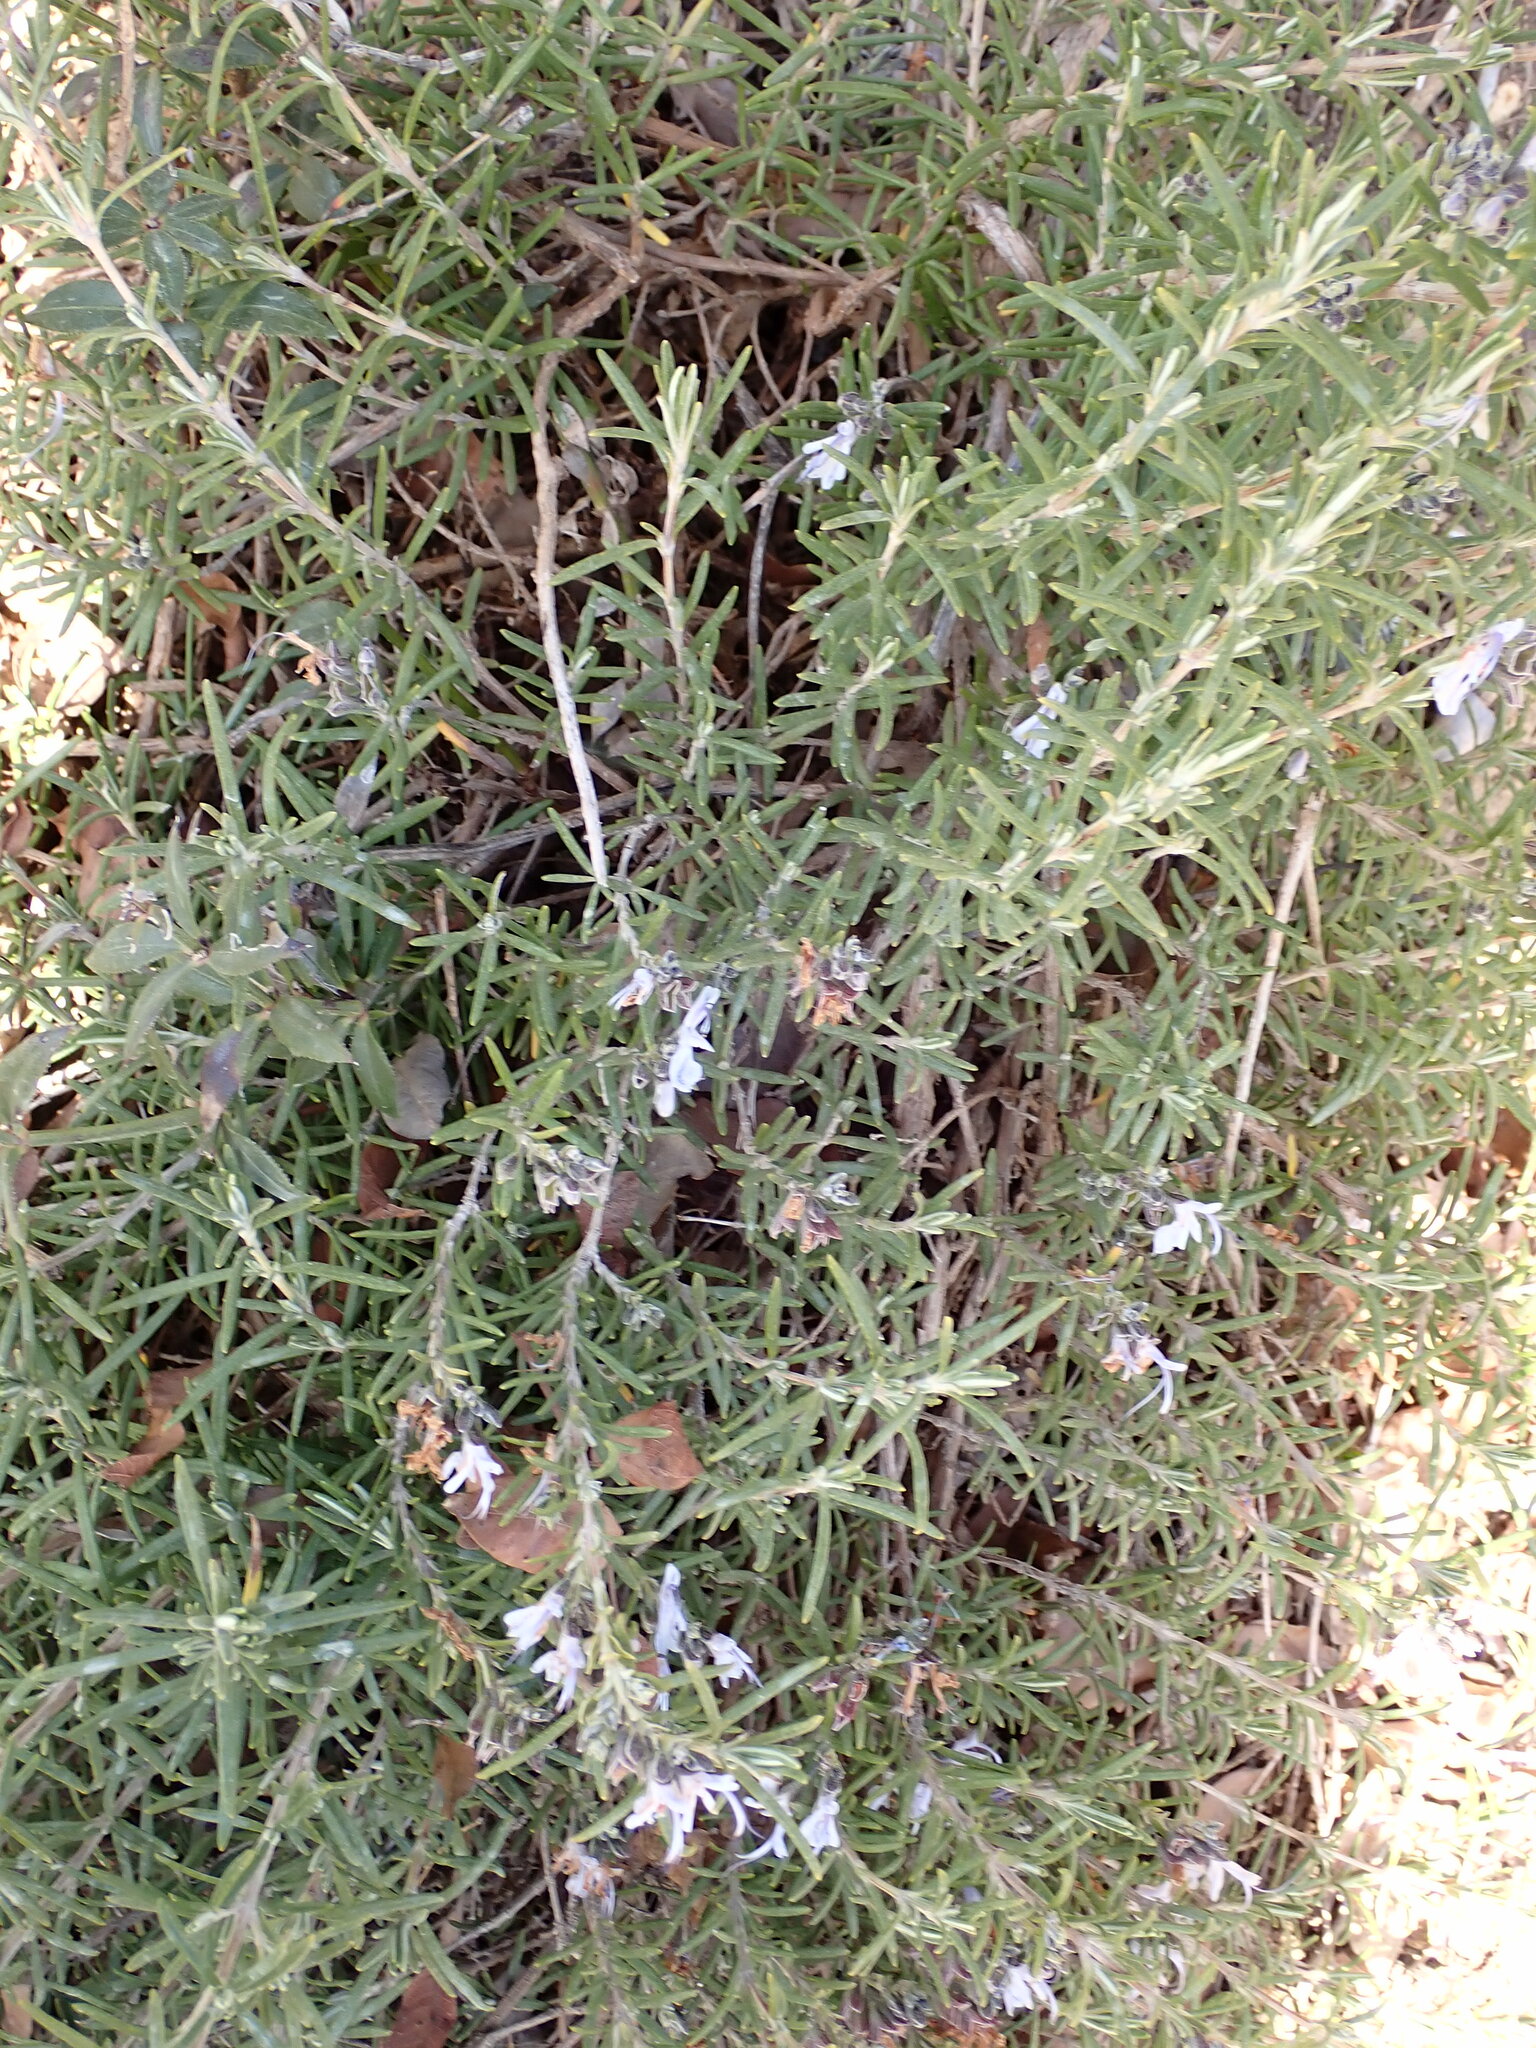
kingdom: Plantae
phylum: Tracheophyta
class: Magnoliopsida
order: Lamiales
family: Lamiaceae
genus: Salvia
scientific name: Salvia rosmarinus
